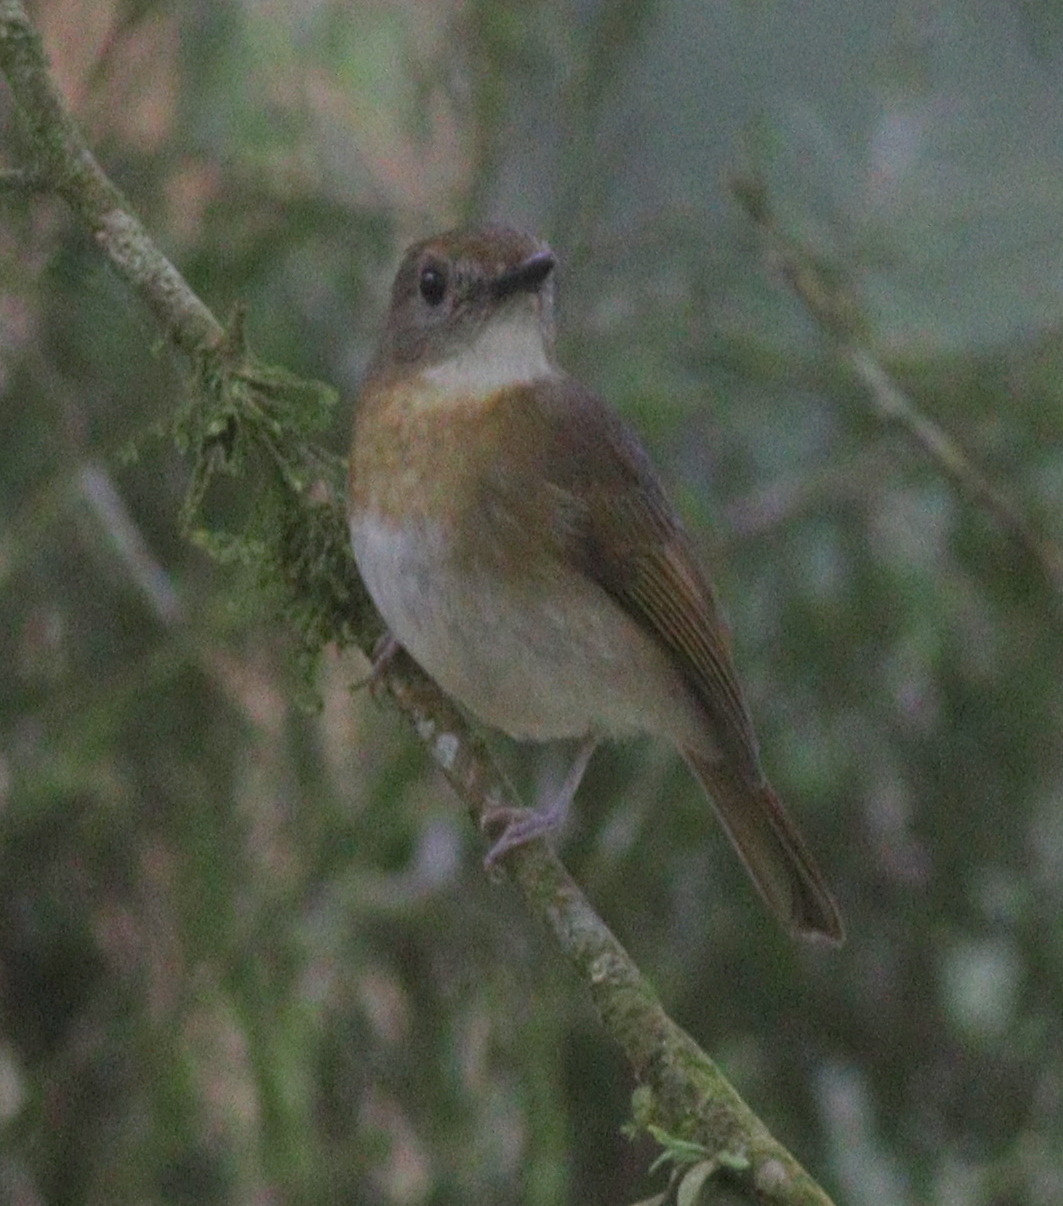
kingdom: Animalia
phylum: Chordata
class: Aves
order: Passeriformes
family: Muscicapidae
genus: Rhinomyias
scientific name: Rhinomyias olivaceus
